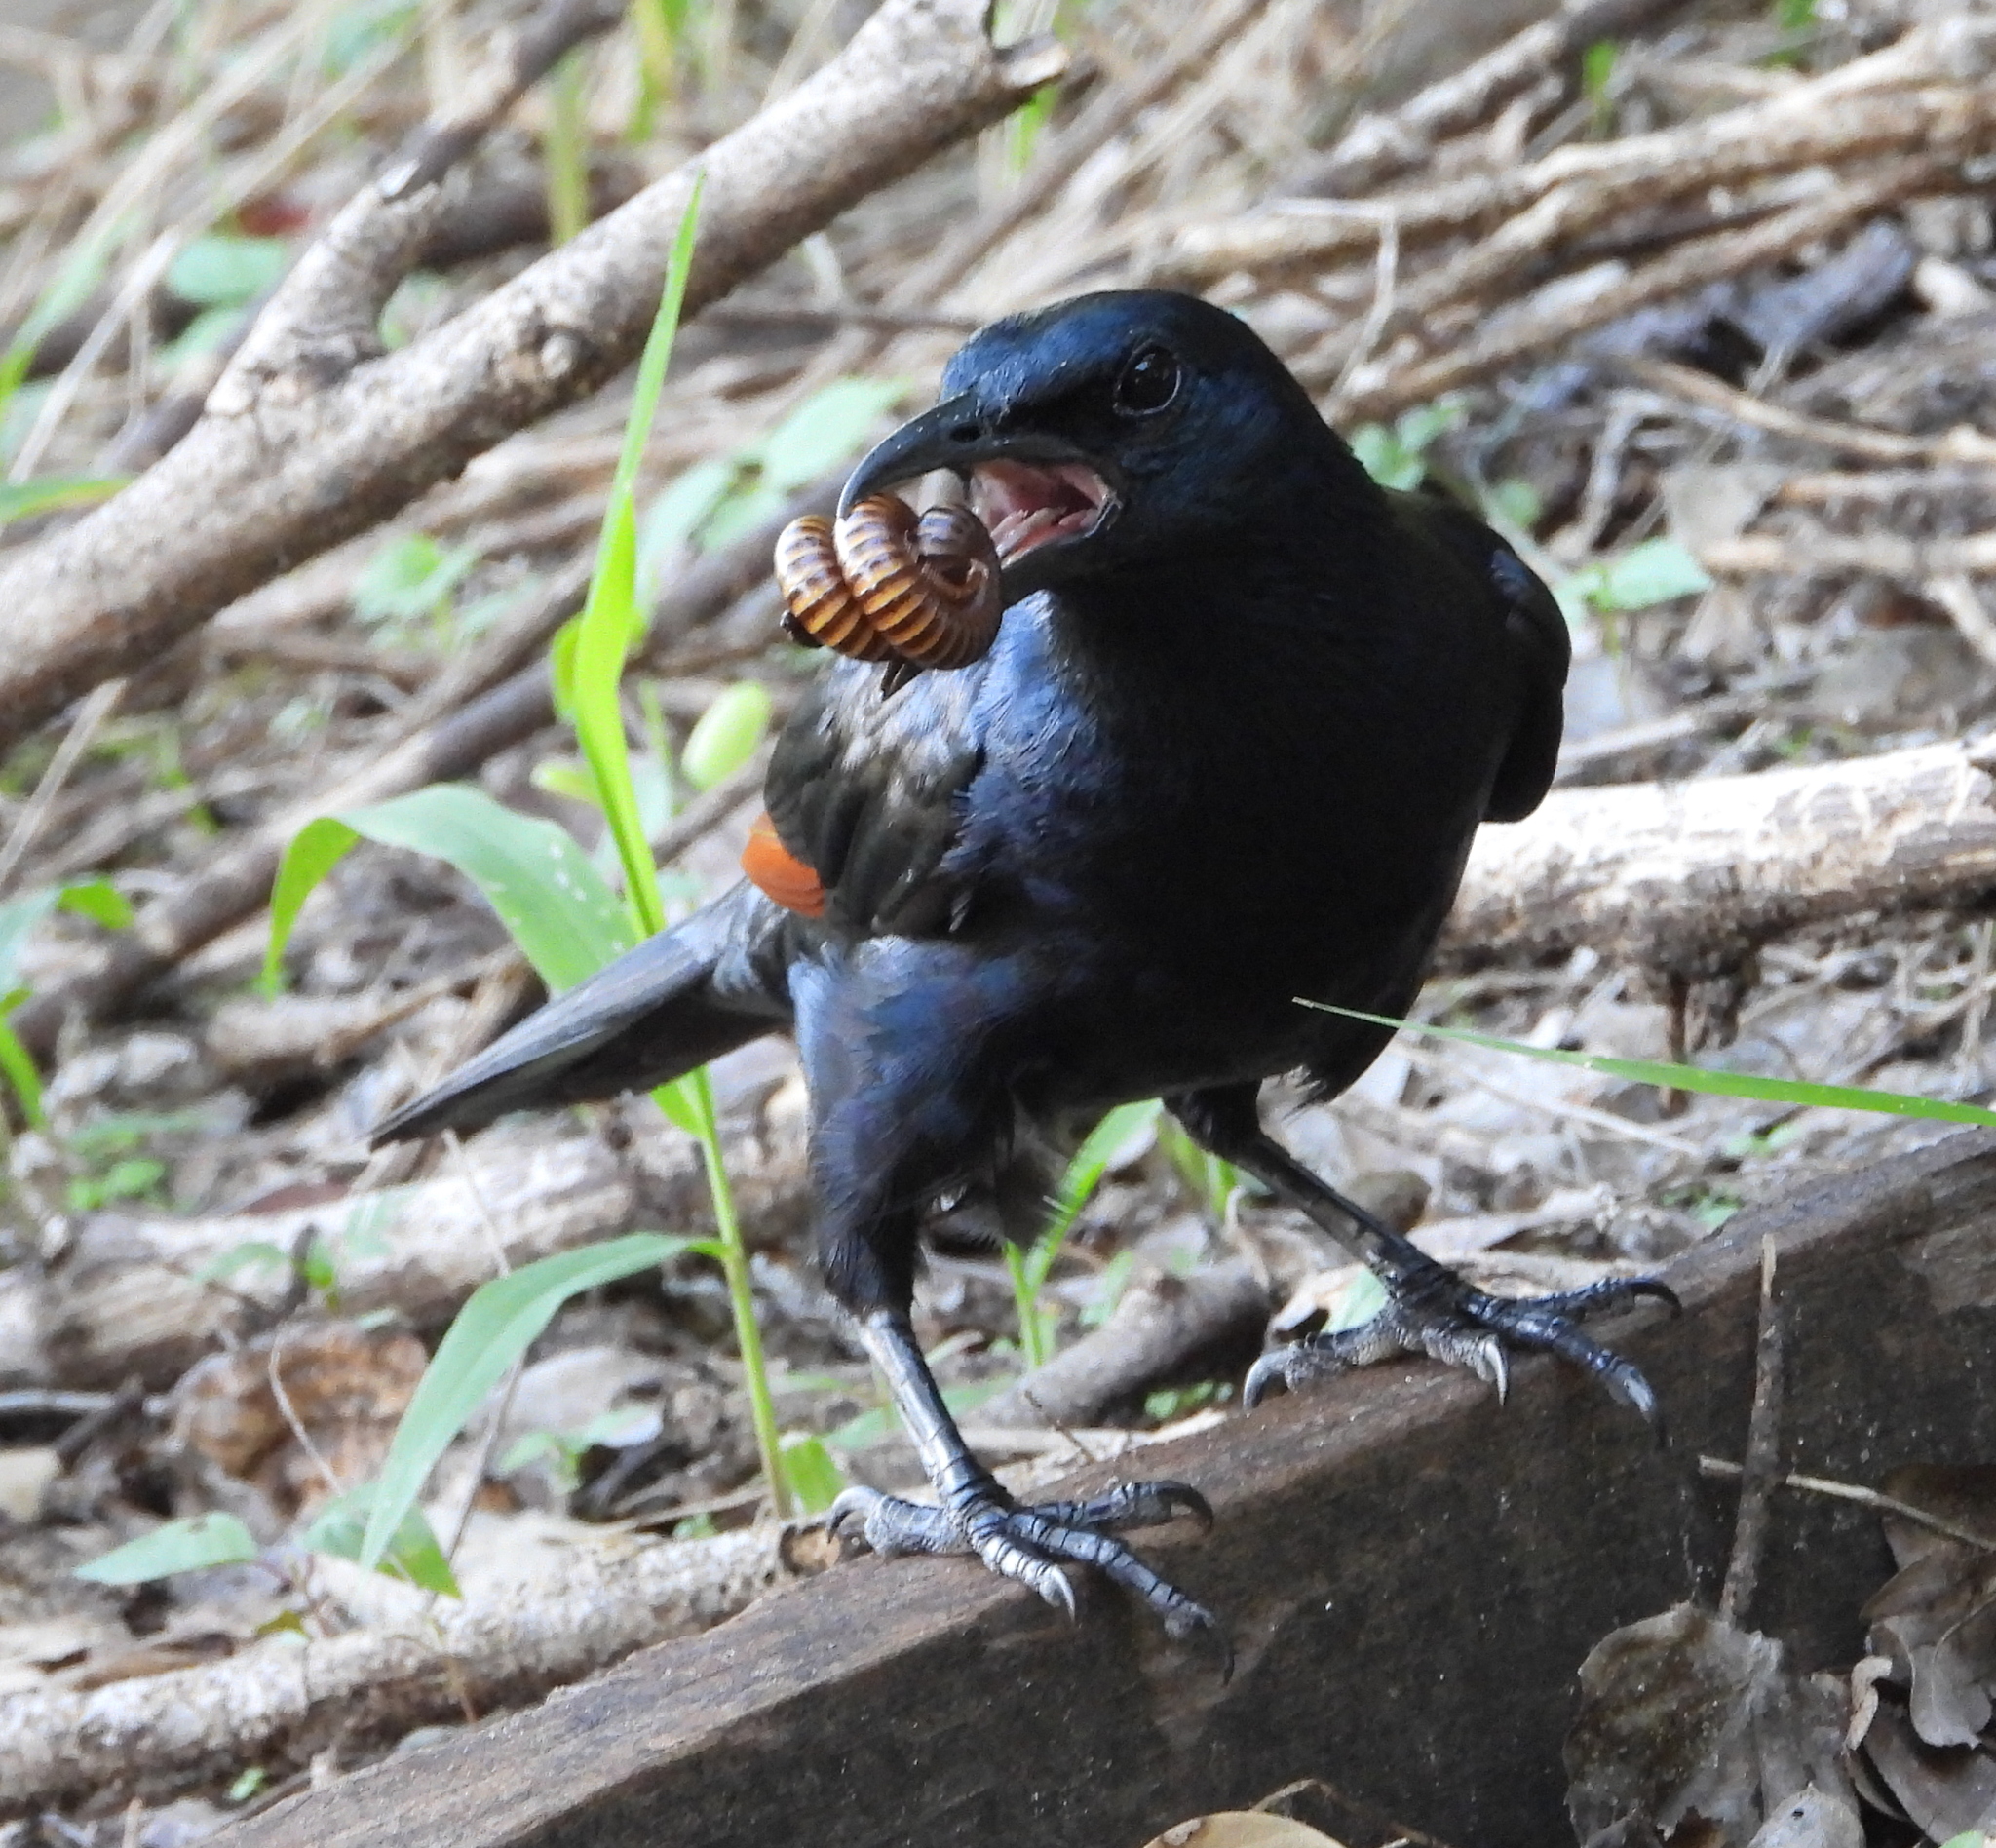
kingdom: Animalia
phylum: Chordata
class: Aves
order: Passeriformes
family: Sturnidae
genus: Onychognathus
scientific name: Onychognathus morio
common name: Red-winged starling
